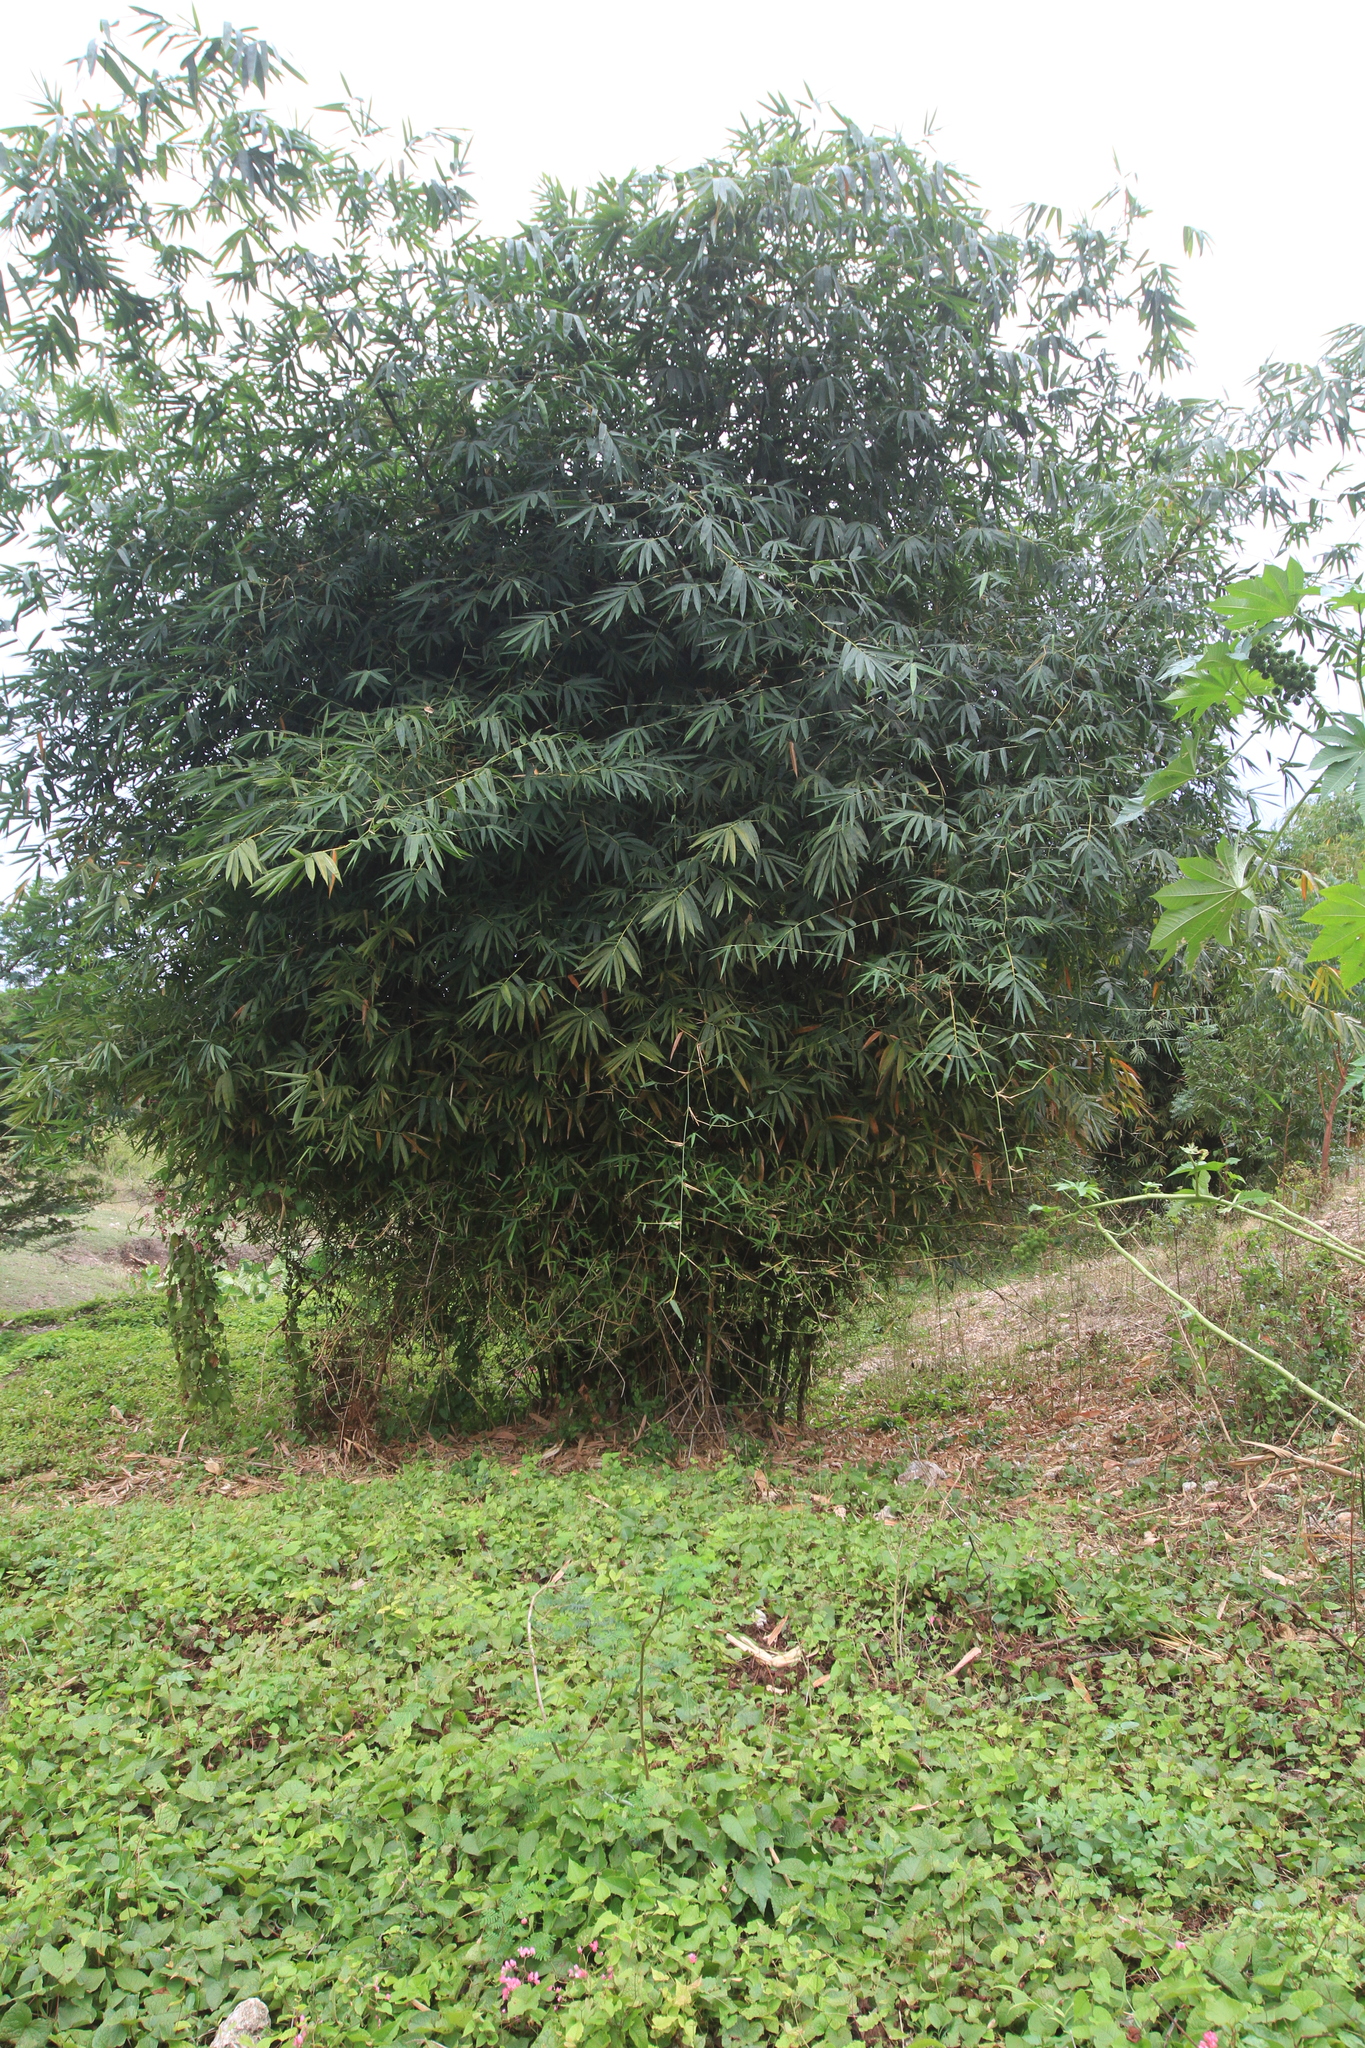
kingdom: Plantae
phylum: Tracheophyta
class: Liliopsida
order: Poales
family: Poaceae
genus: Bambusa
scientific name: Bambusa vulgaris
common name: Common bamboo
